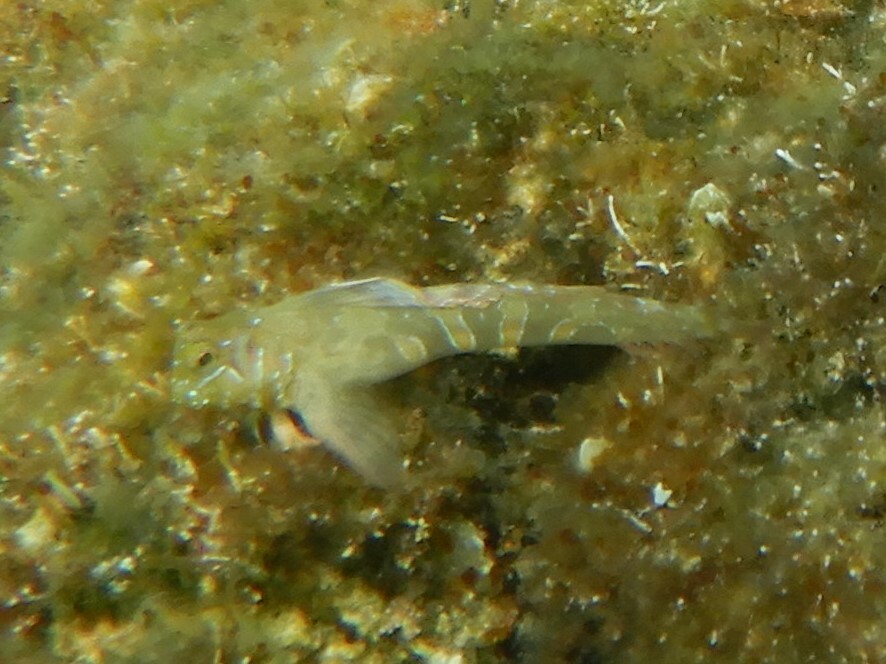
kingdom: Animalia
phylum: Chordata
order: Perciformes
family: Blenniidae
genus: Aidablennius
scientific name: Aidablennius sphynx
